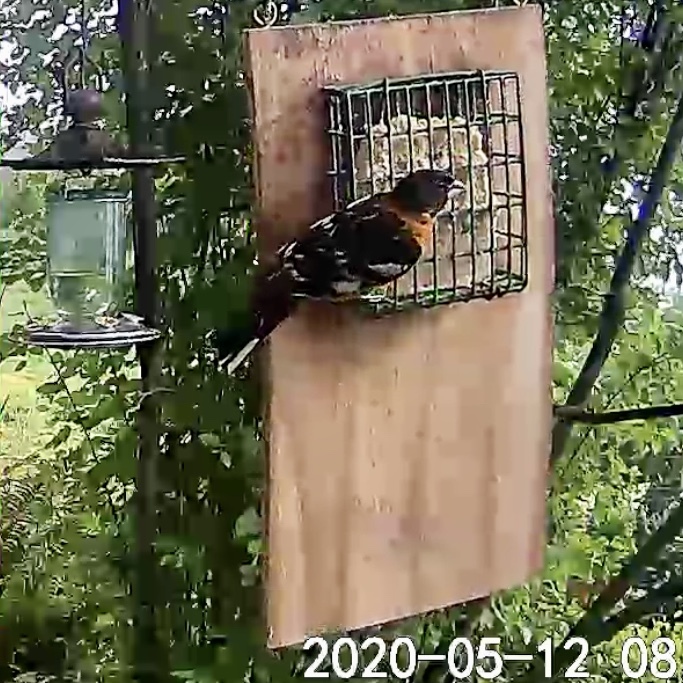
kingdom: Animalia
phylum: Chordata
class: Aves
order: Passeriformes
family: Cardinalidae
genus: Pheucticus
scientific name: Pheucticus melanocephalus
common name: Black-headed grosbeak
